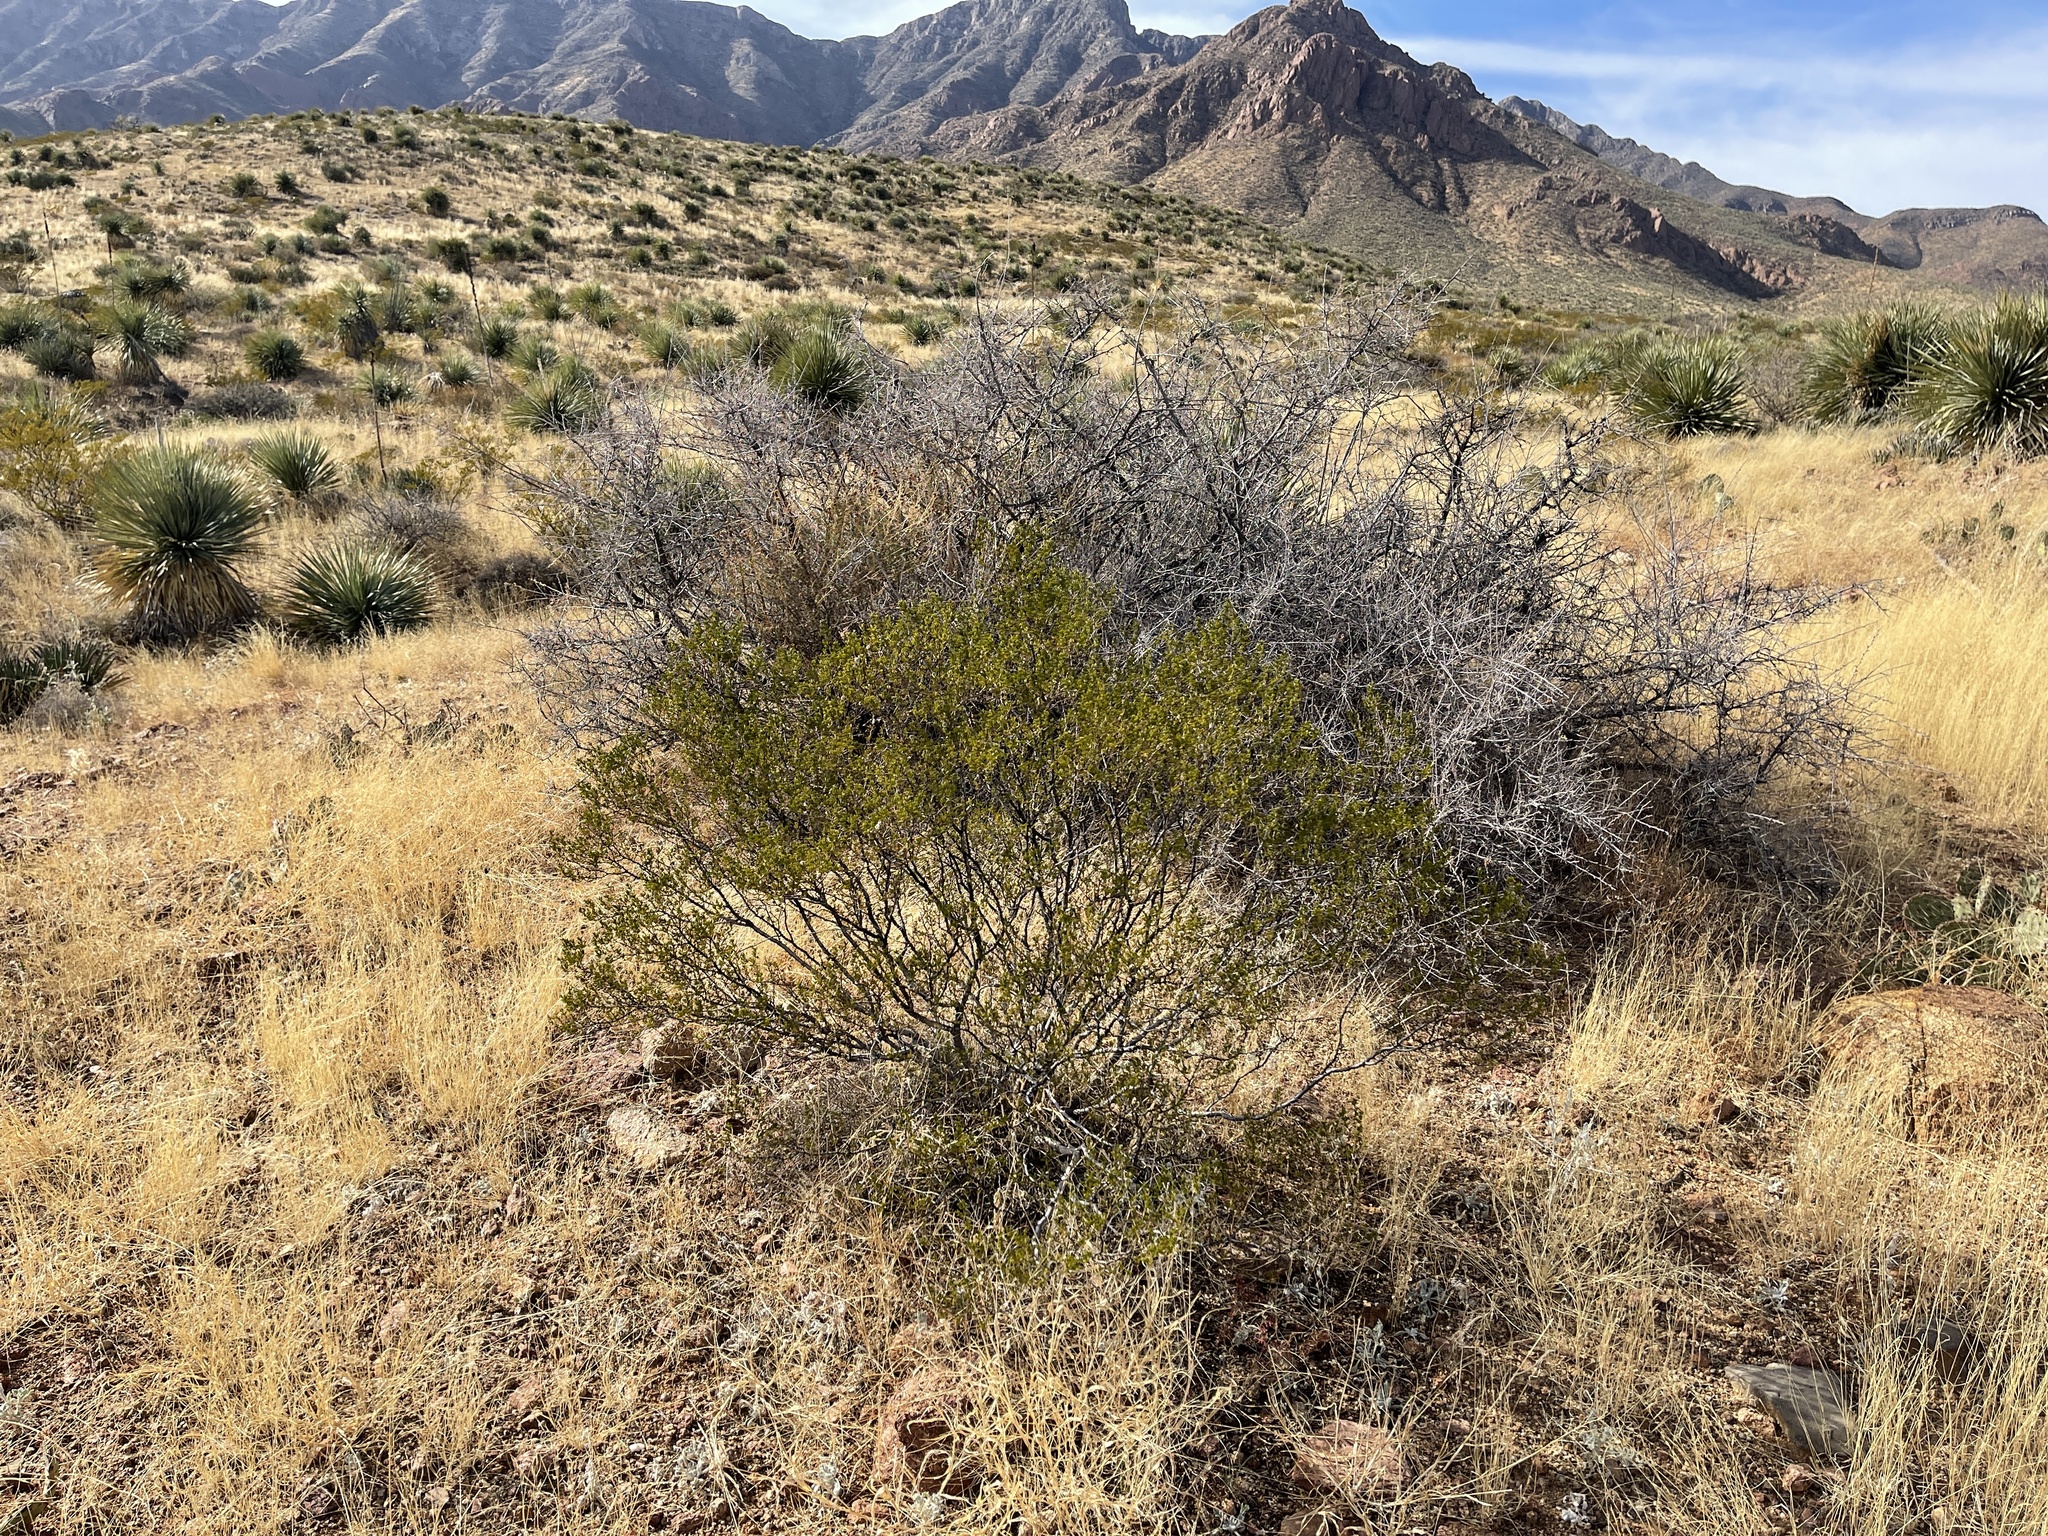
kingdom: Plantae
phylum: Tracheophyta
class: Magnoliopsida
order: Zygophyllales
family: Zygophyllaceae
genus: Larrea
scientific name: Larrea tridentata
